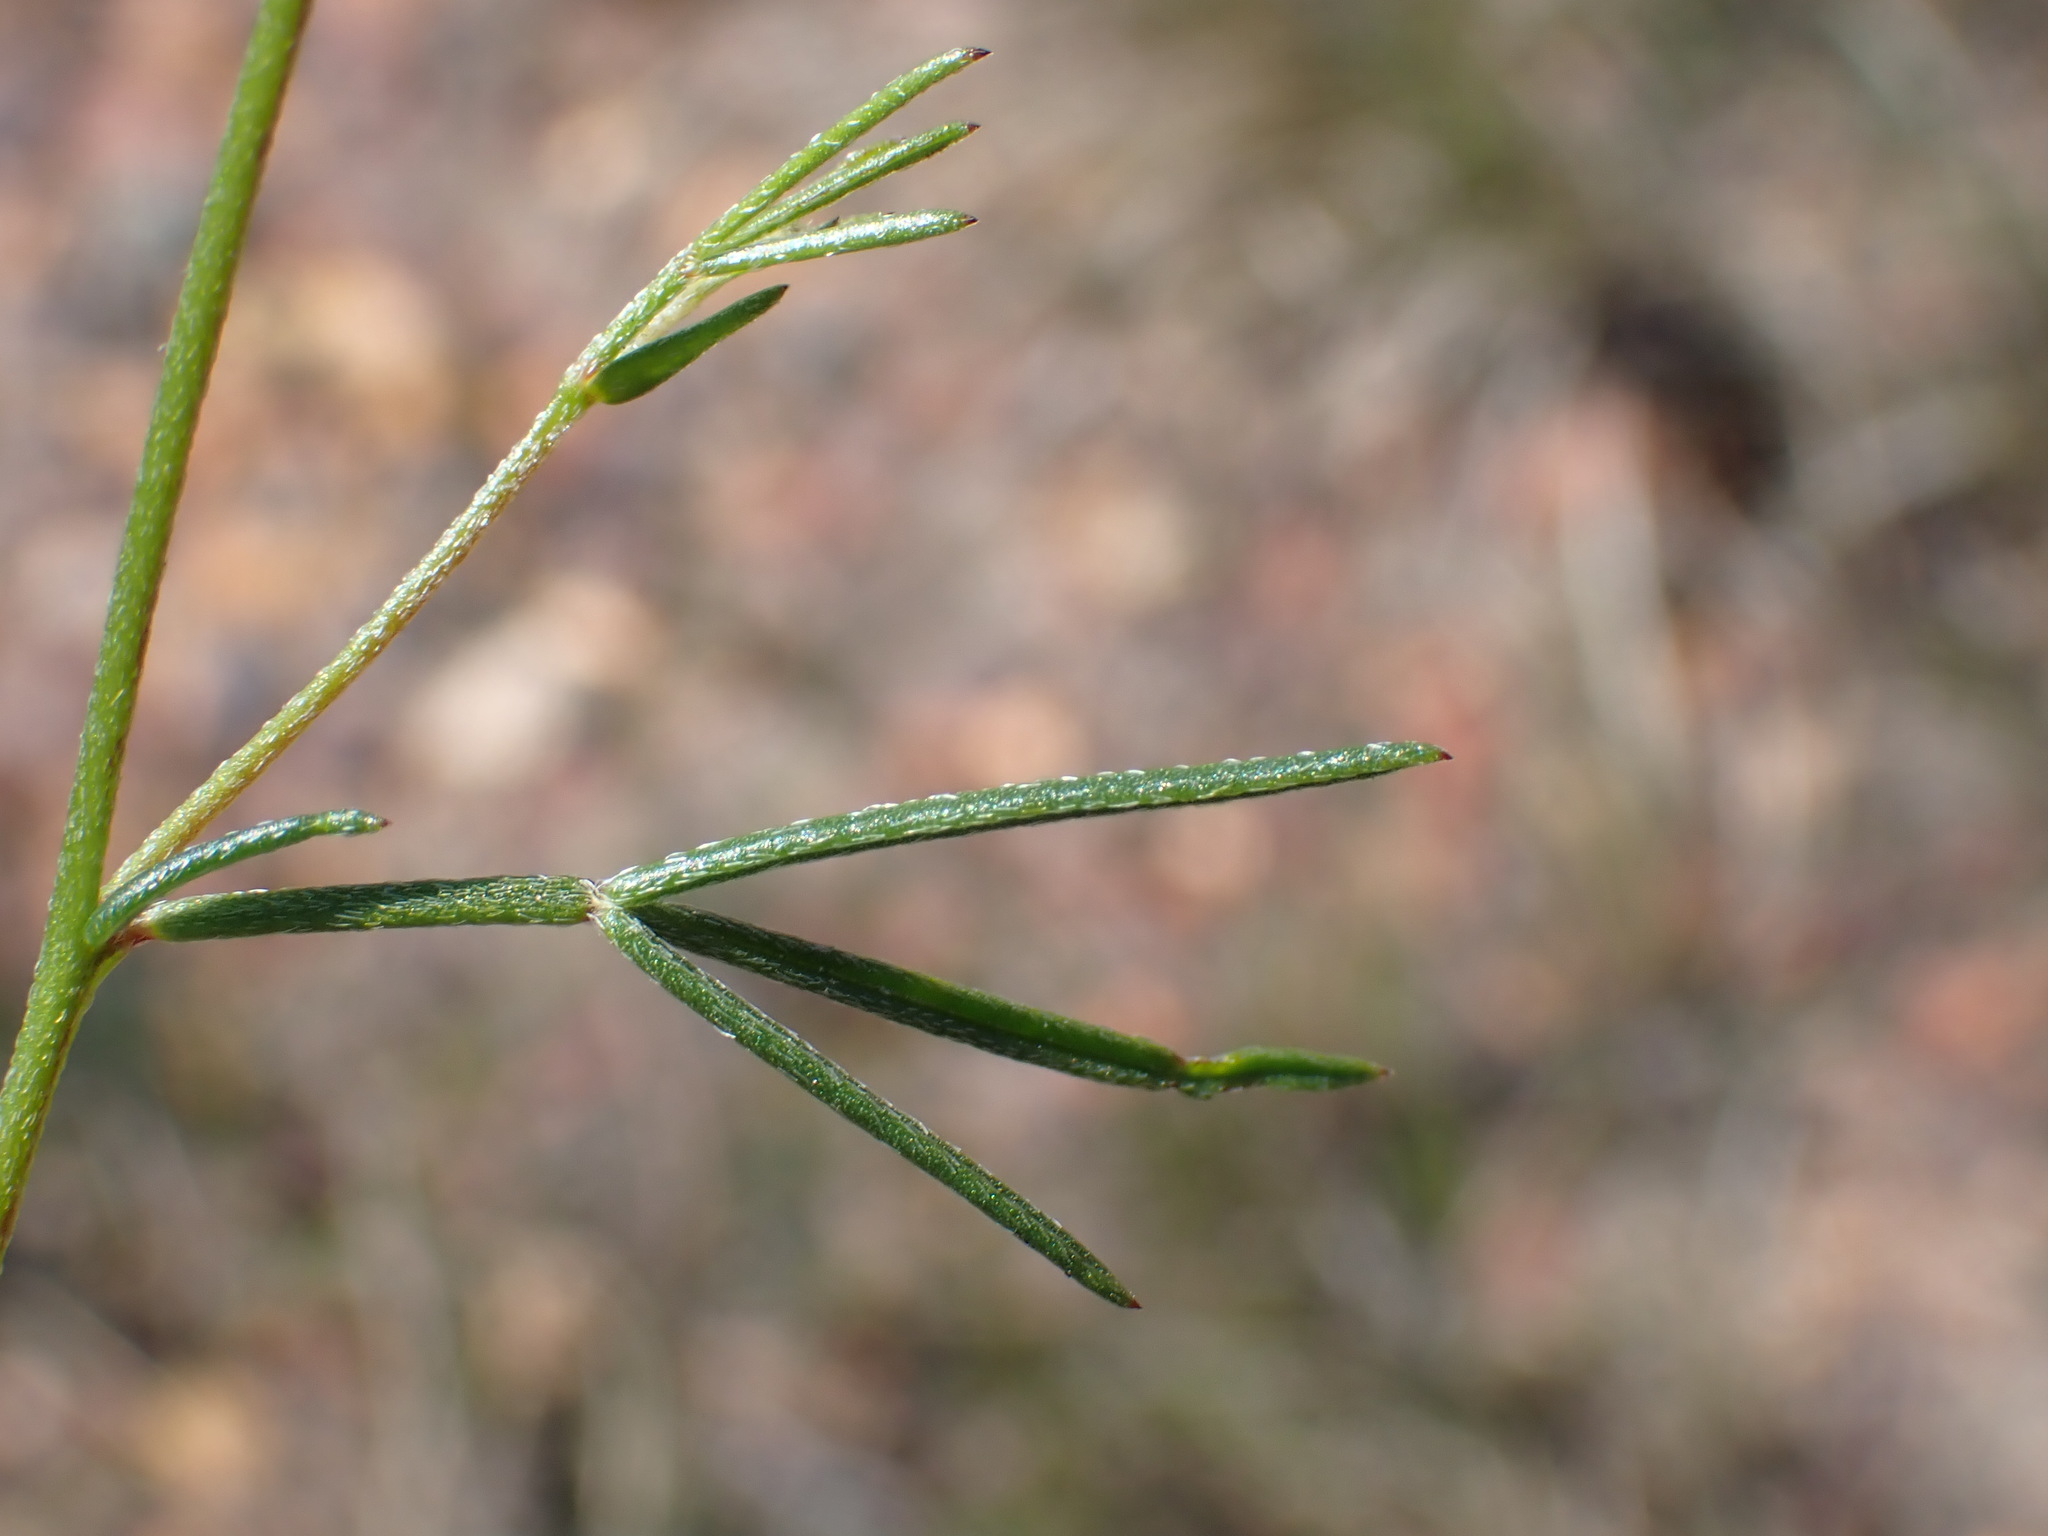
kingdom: Plantae
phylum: Tracheophyta
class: Magnoliopsida
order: Fabales
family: Fabaceae
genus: Lotononis
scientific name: Lotononis filiformis
